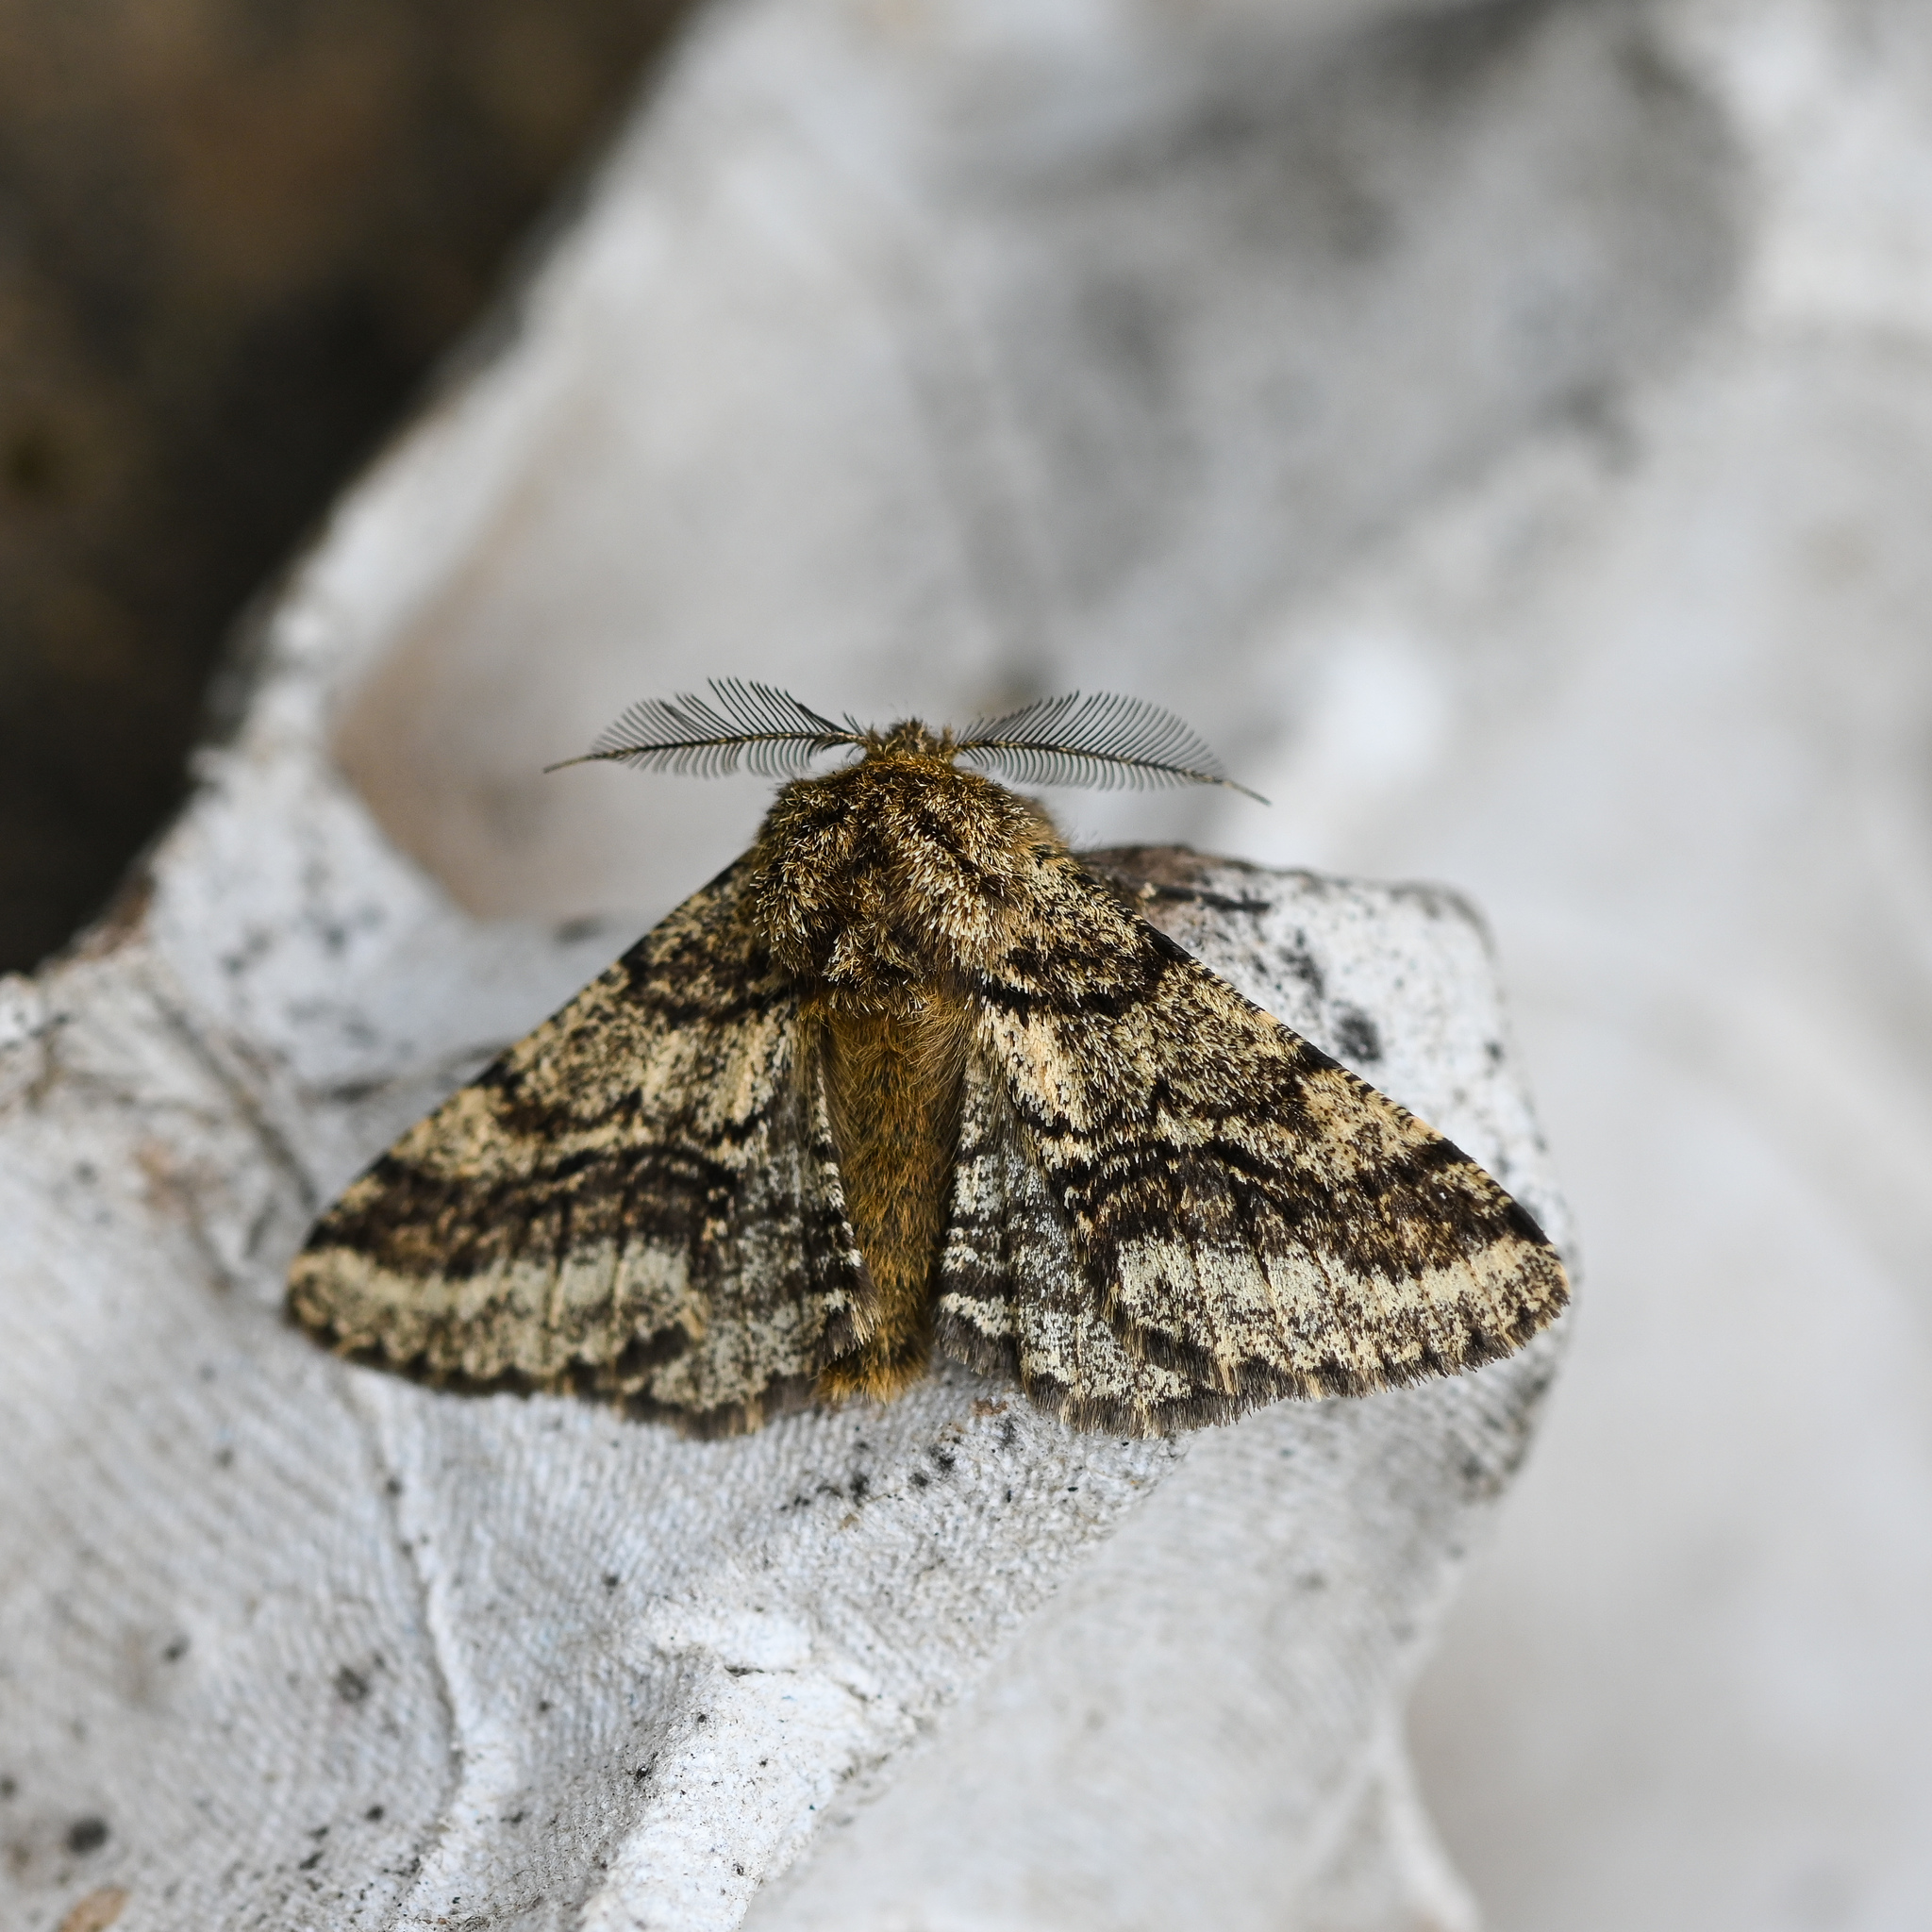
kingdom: Animalia
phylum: Arthropoda
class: Insecta
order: Lepidoptera
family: Geometridae
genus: Lycia
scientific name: Lycia hirtaria
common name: Brindled beauty
